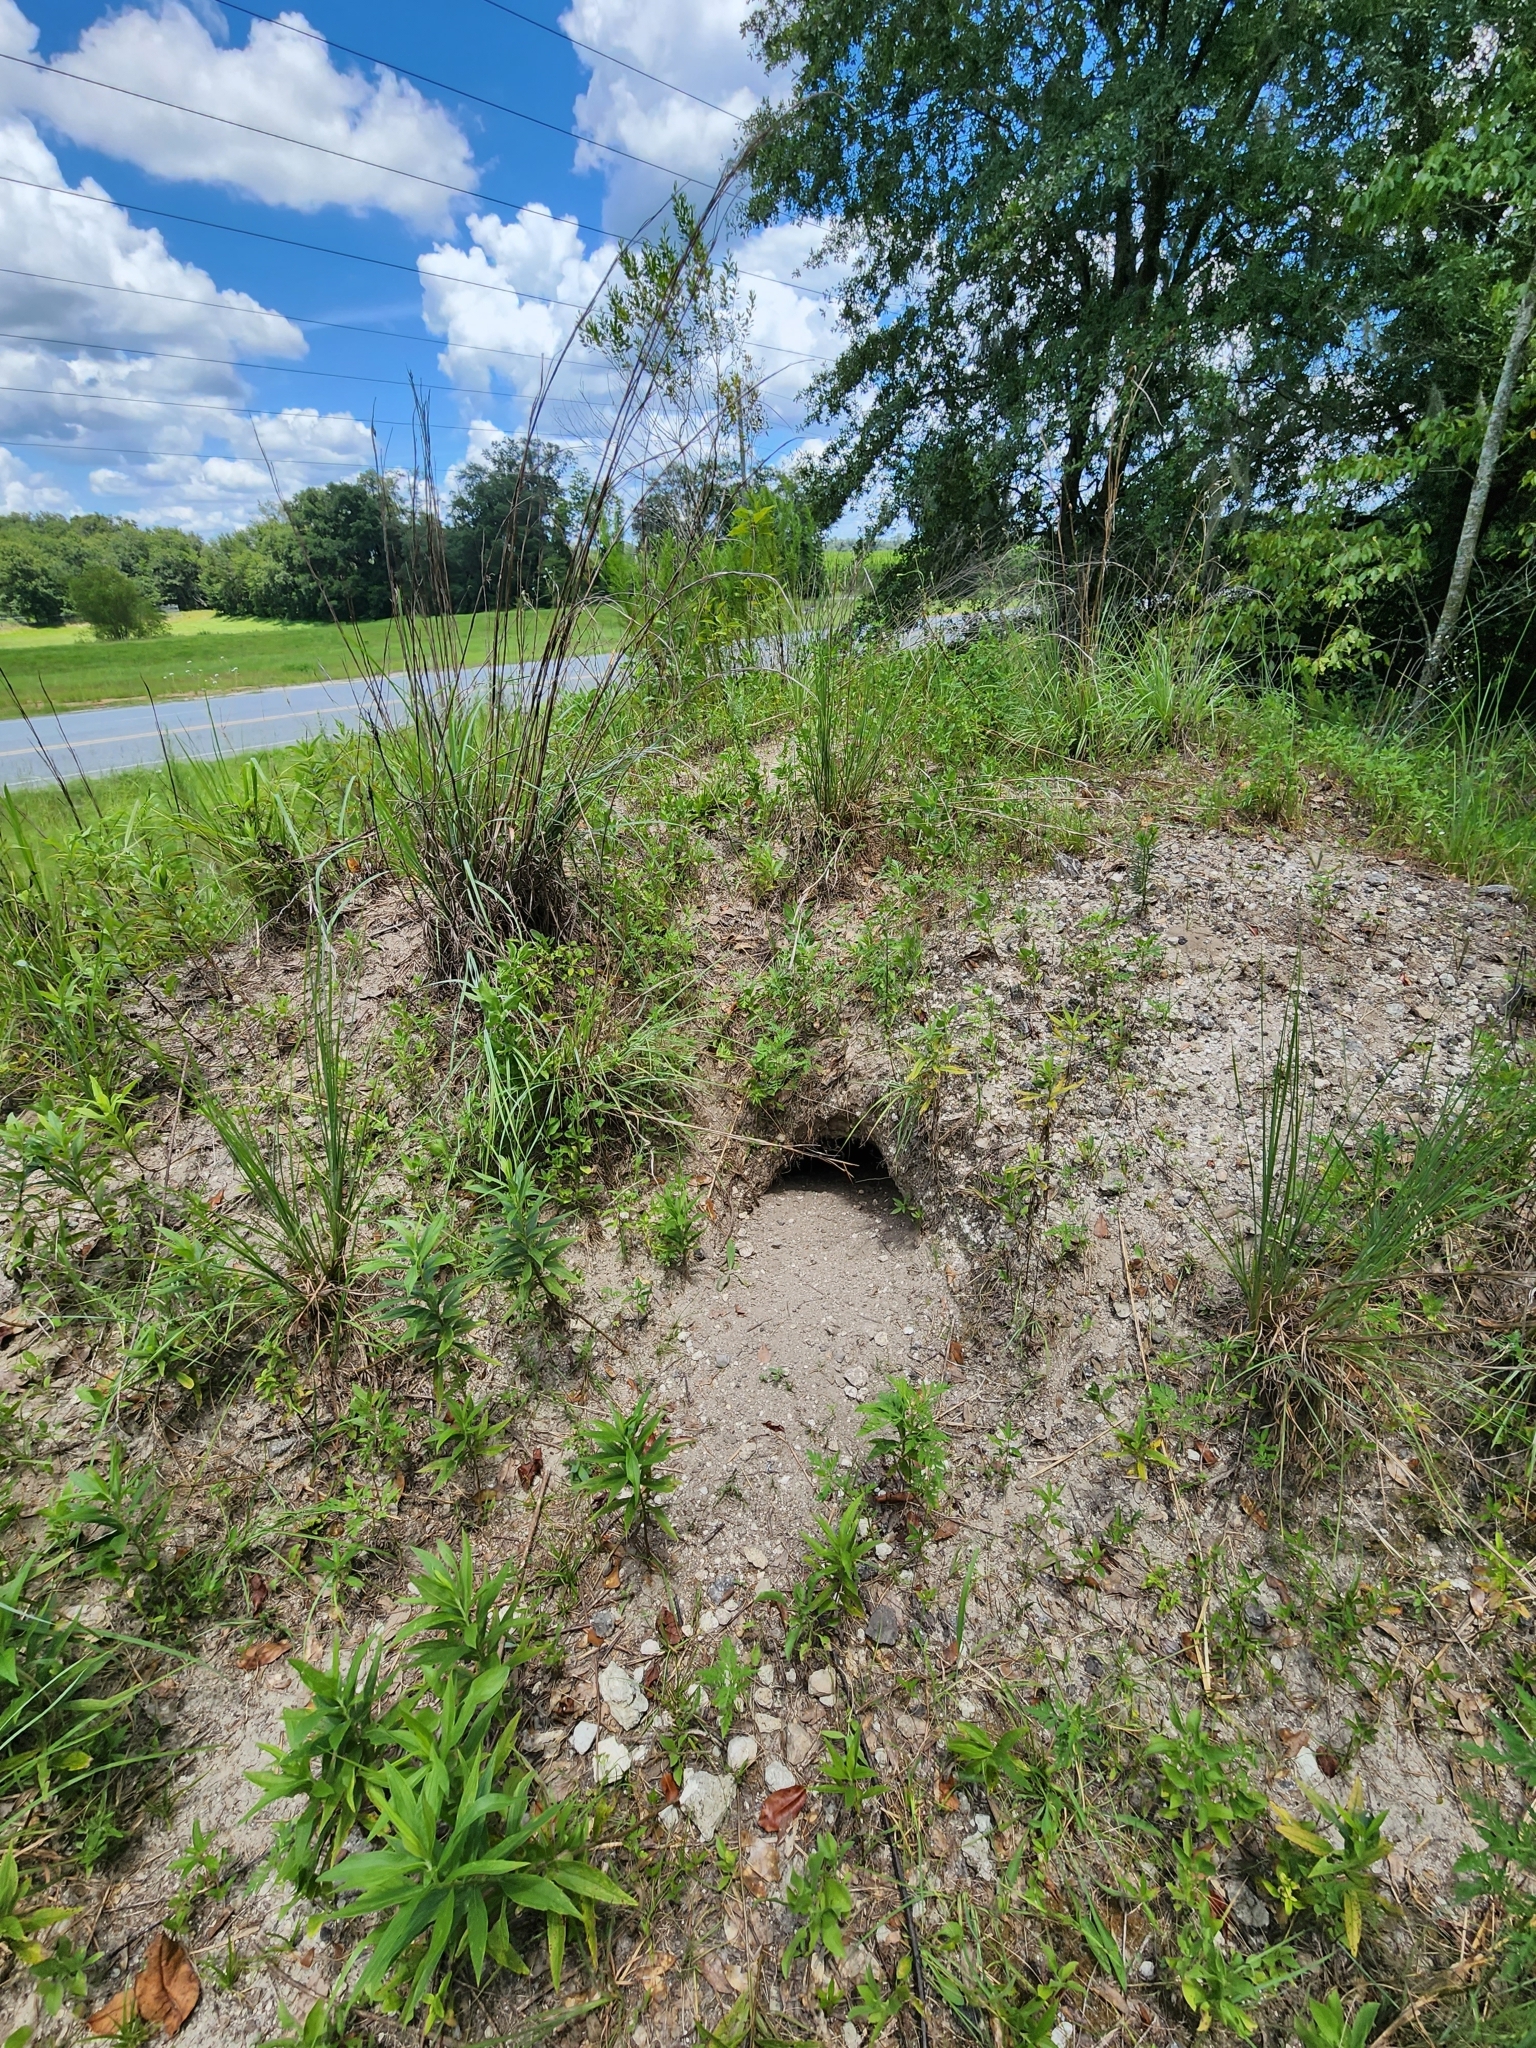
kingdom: Animalia
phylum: Chordata
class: Testudines
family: Testudinidae
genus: Gopherus
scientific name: Gopherus polyphemus
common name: Florida gopher tortoise
